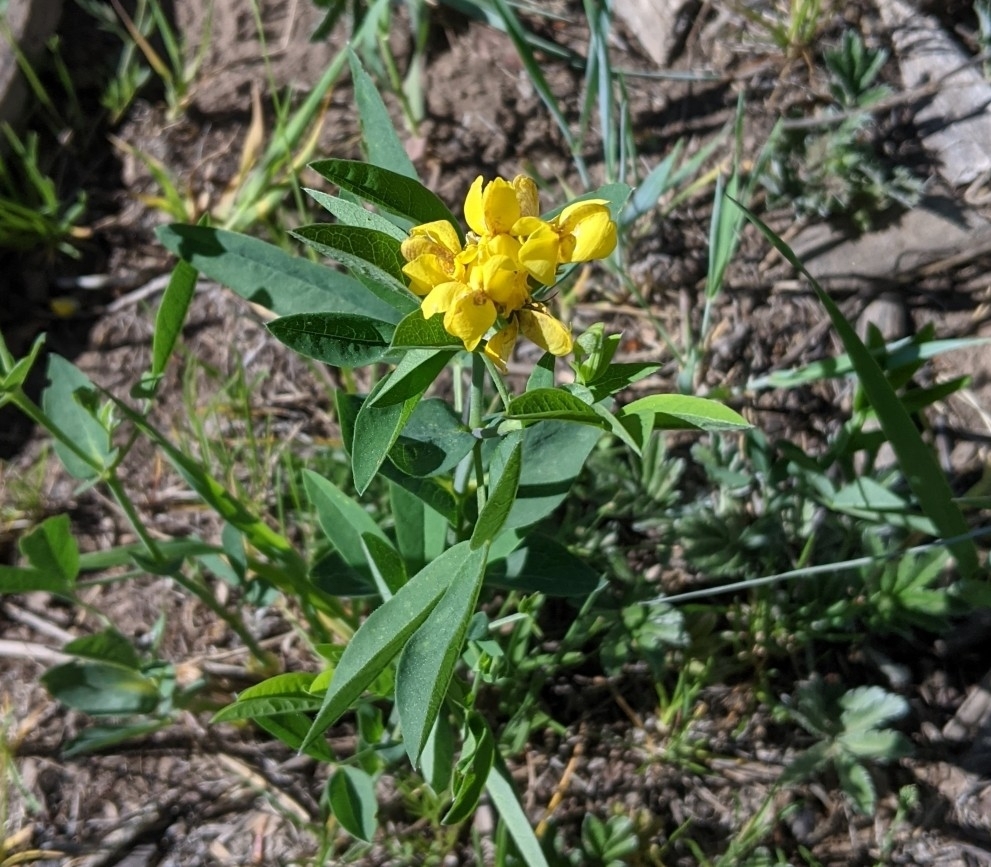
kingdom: Plantae
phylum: Tracheophyta
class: Magnoliopsida
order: Fabales
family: Fabaceae
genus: Thermopsis
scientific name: Thermopsis montana
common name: False lupin
